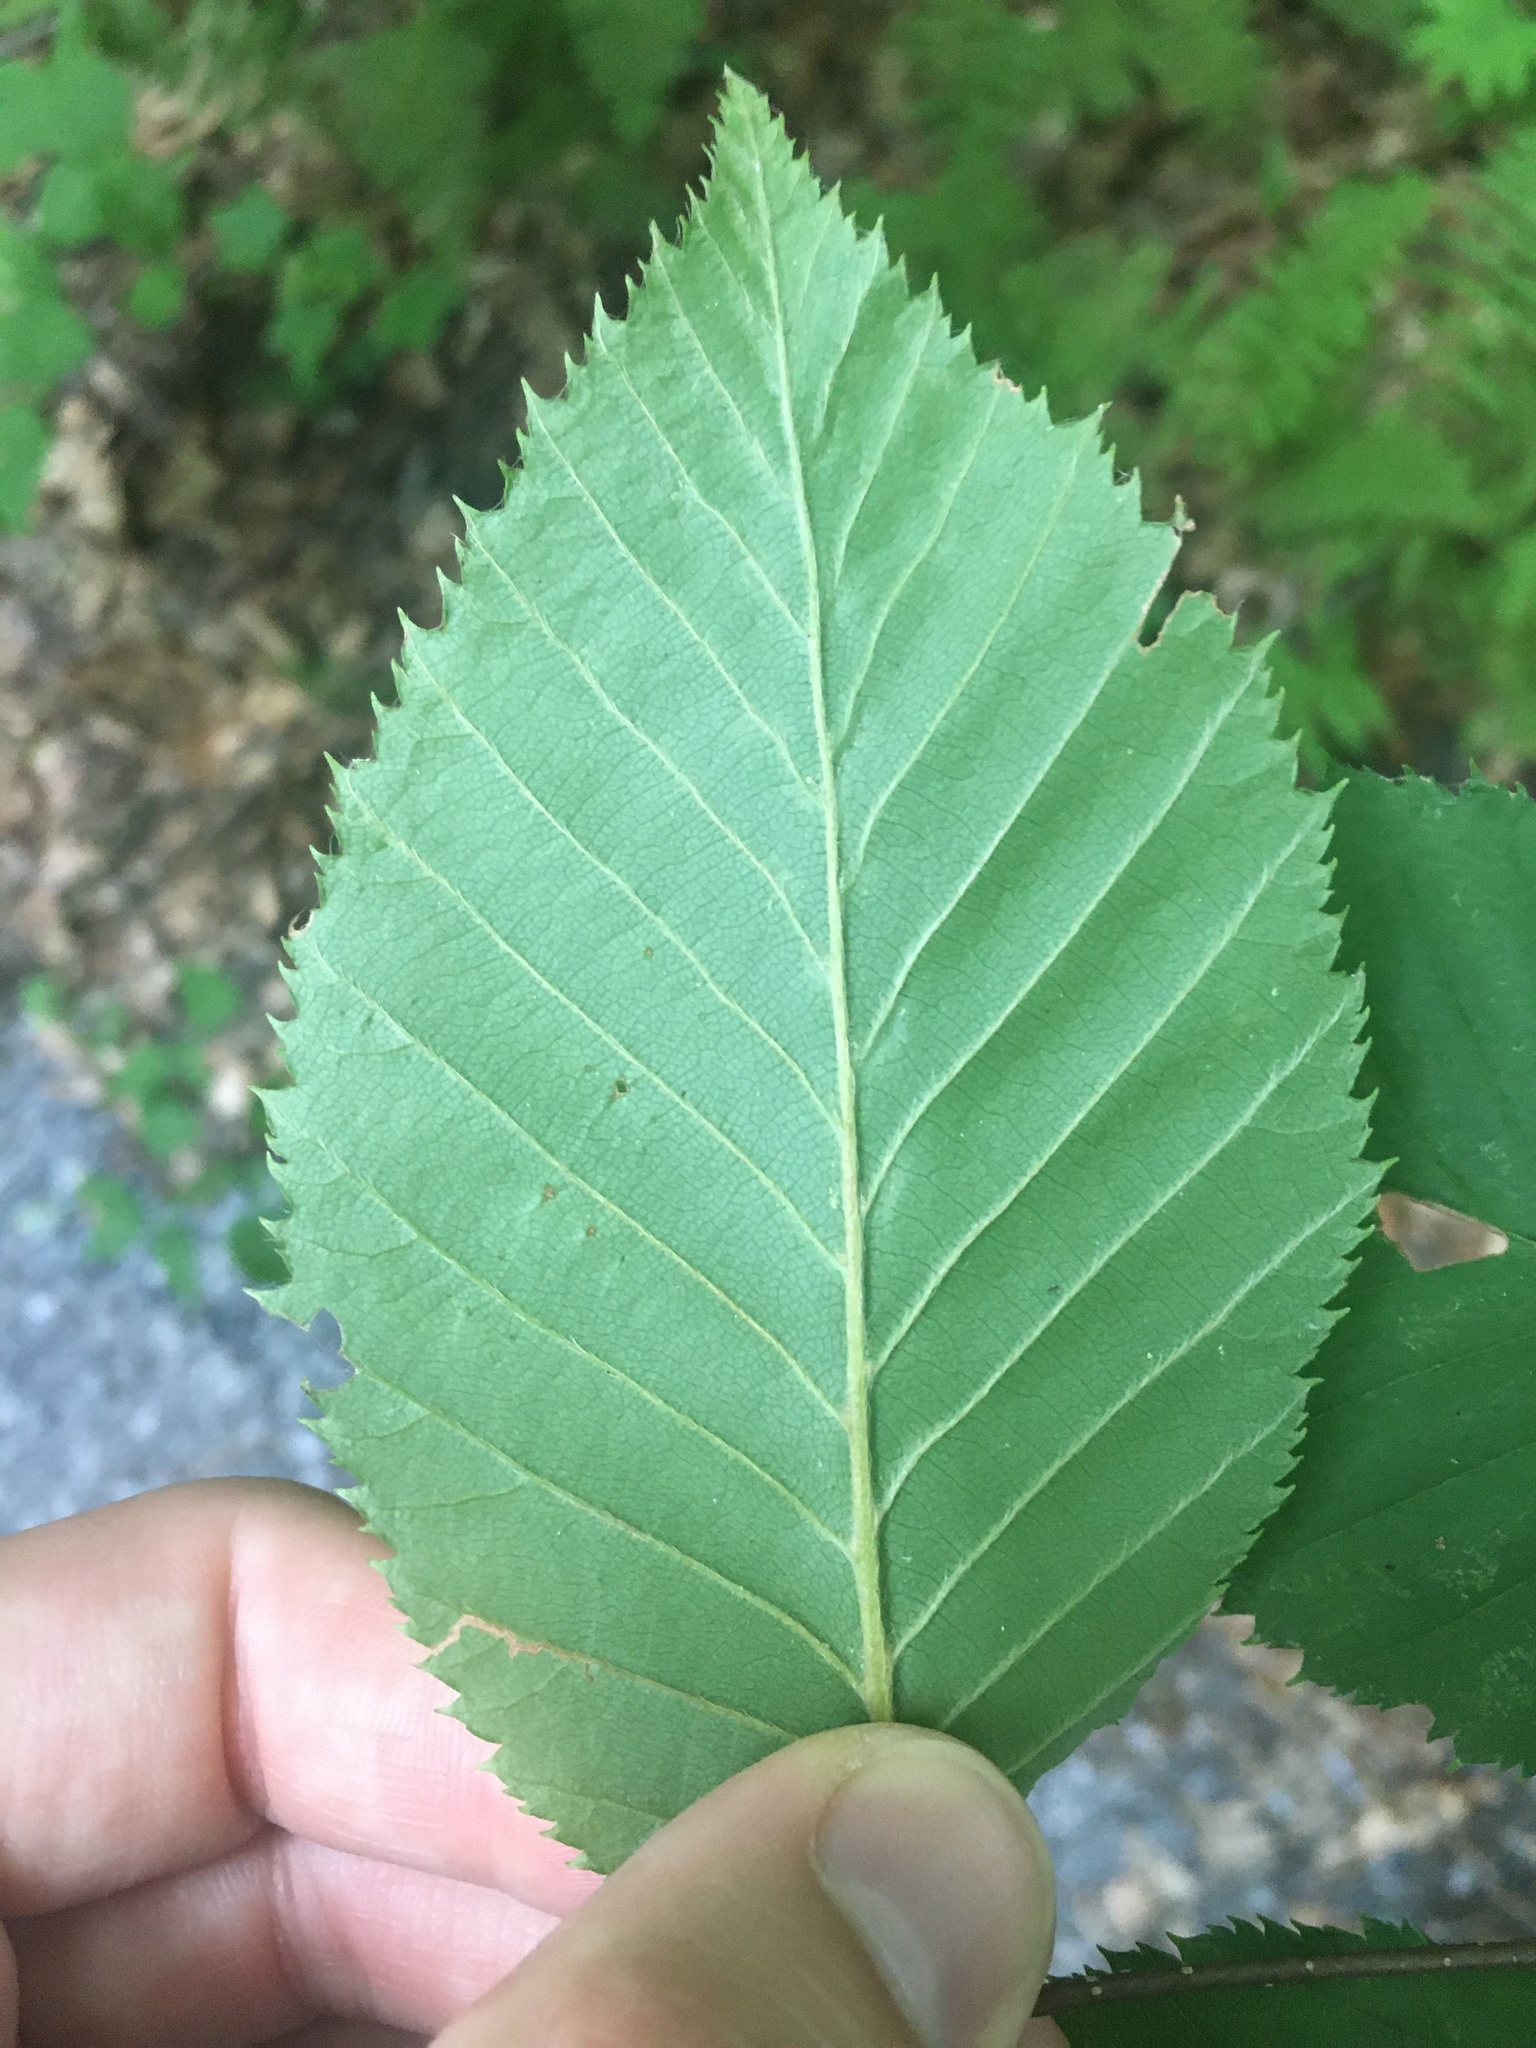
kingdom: Plantae
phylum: Tracheophyta
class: Magnoliopsida
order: Fagales
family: Betulaceae
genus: Betula
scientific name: Betula alleghaniensis
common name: Yellow birch
